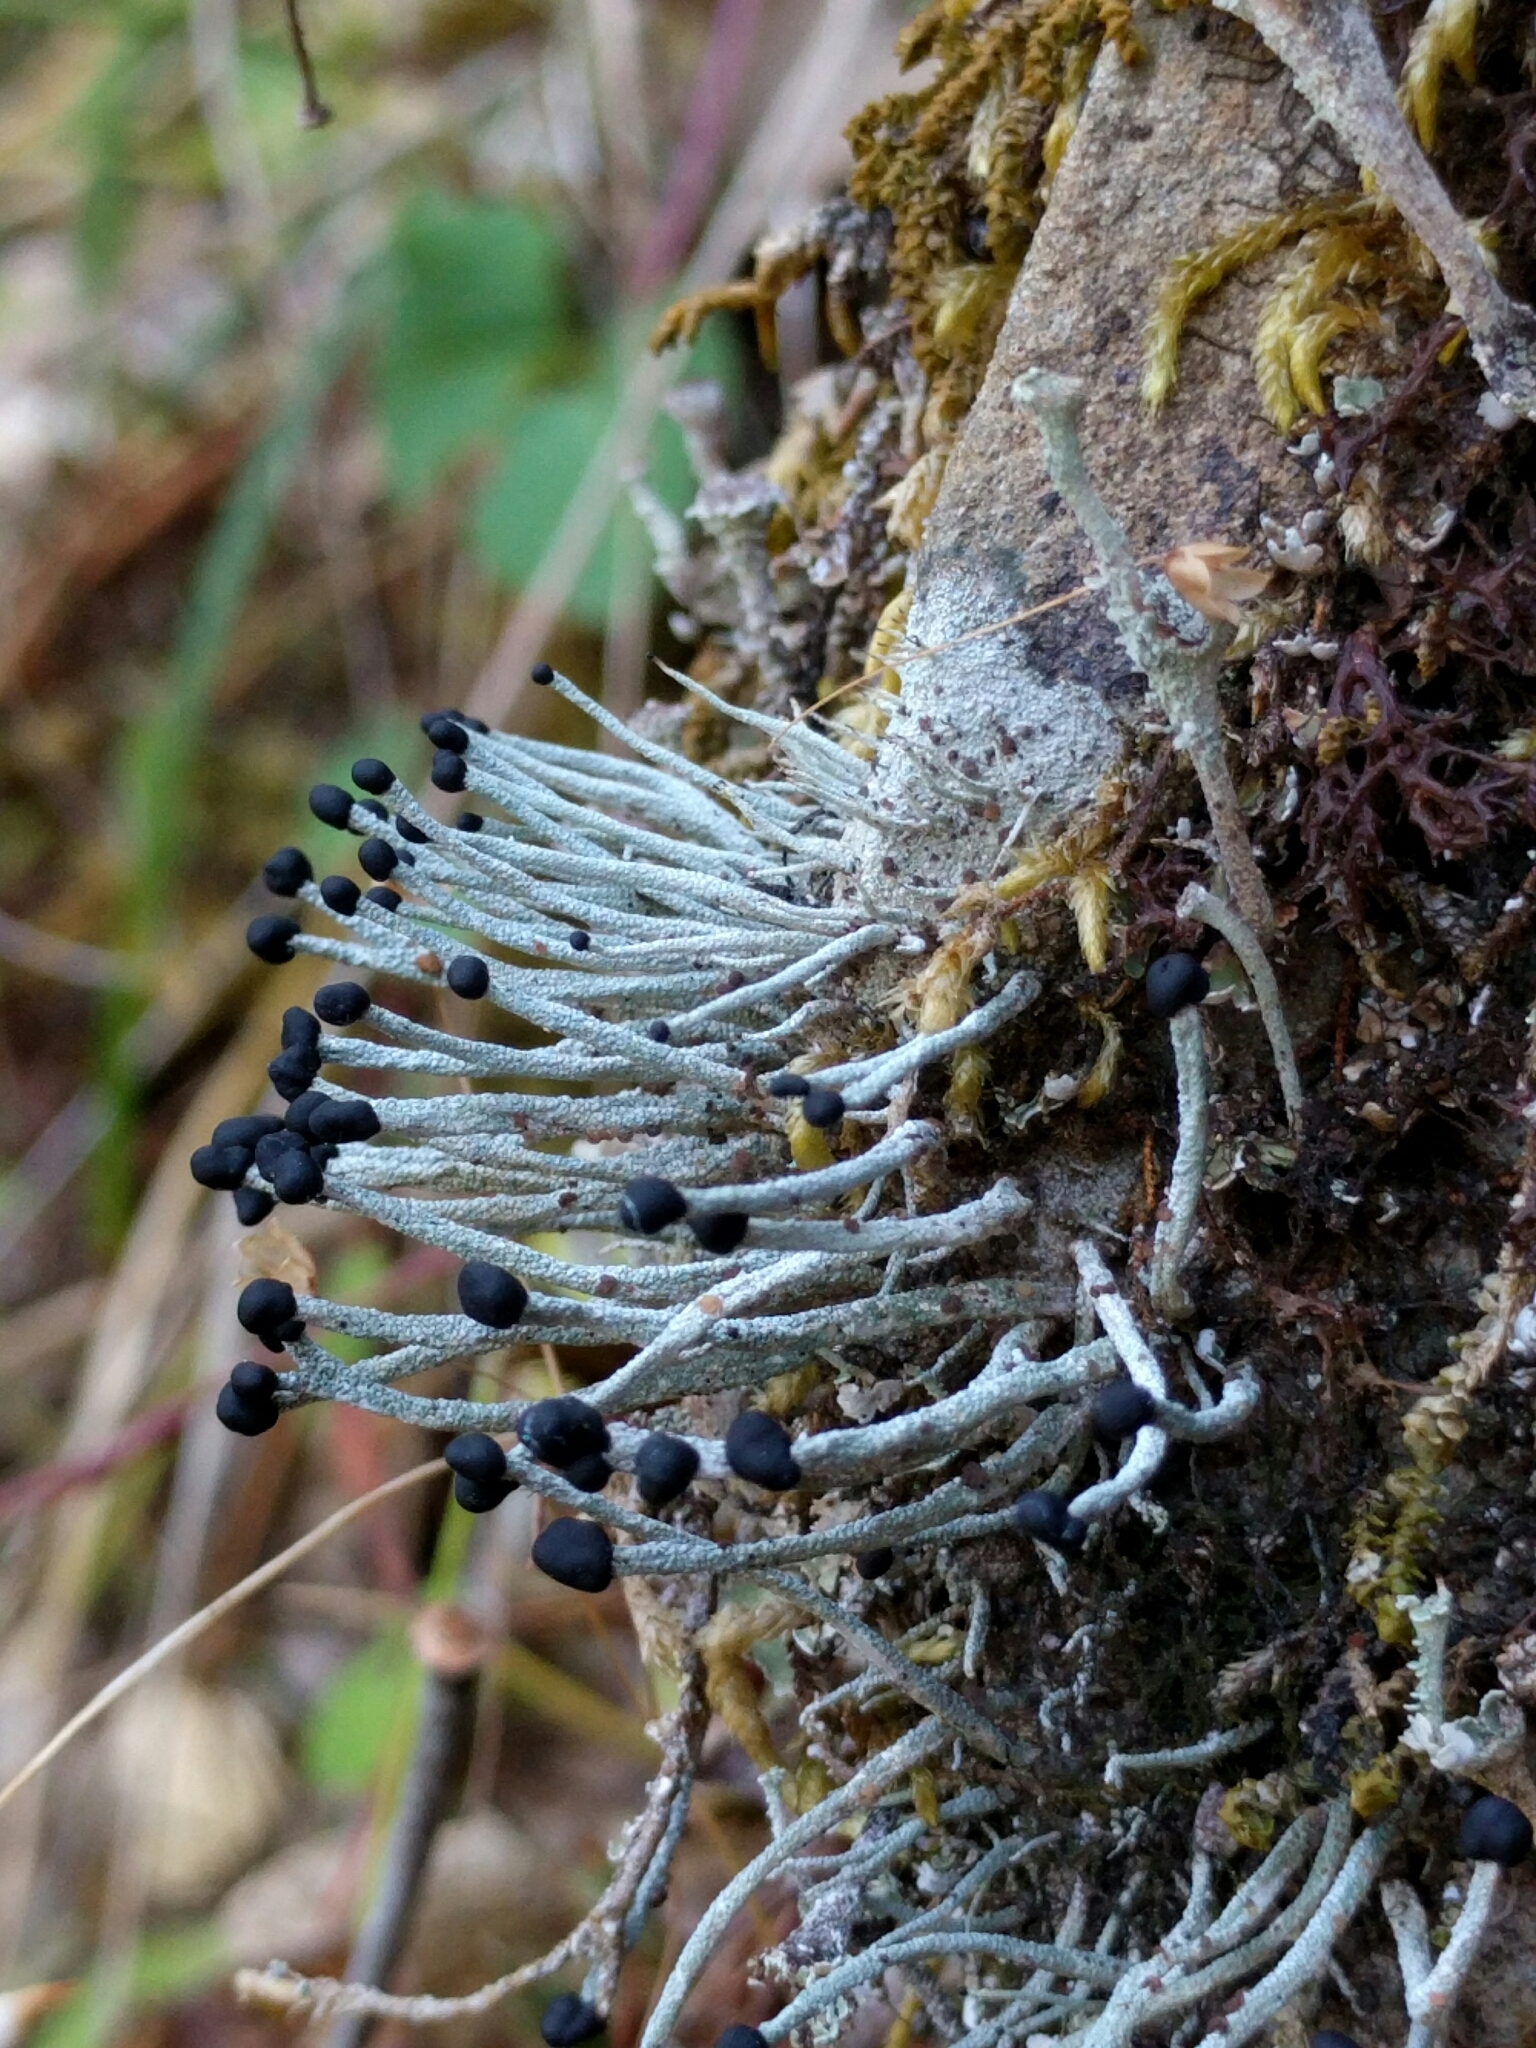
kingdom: Fungi
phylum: Ascomycota
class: Lecanoromycetes
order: Lecanorales
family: Cladoniaceae
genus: Pilophorus
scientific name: Pilophorus acicularis
